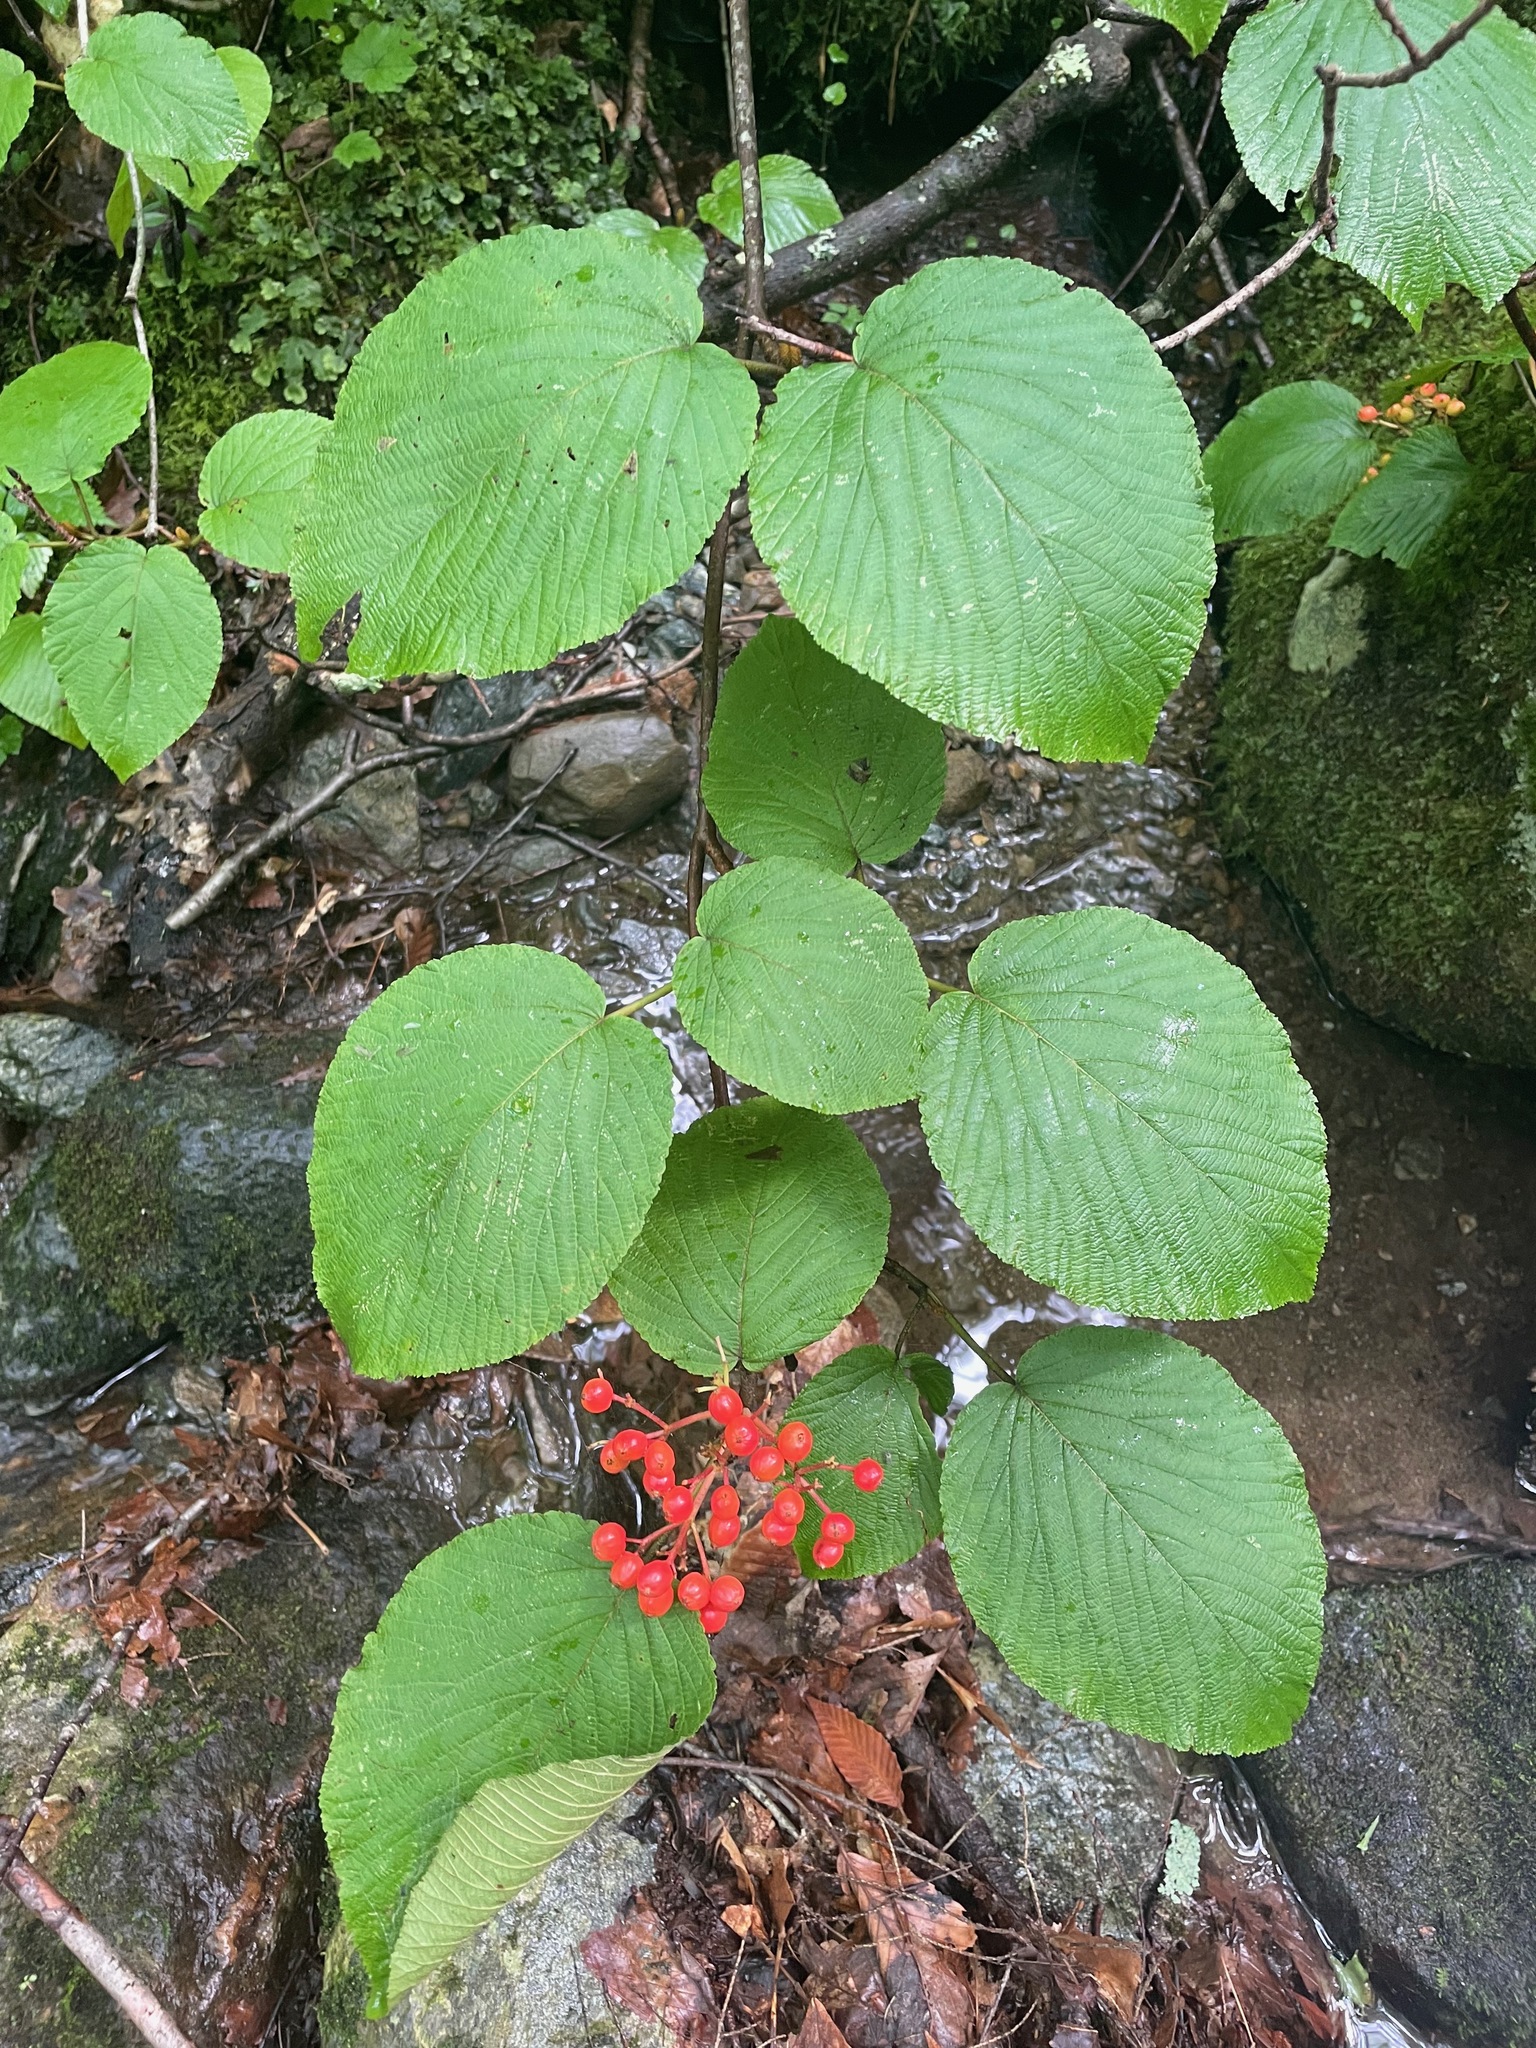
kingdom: Plantae
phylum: Tracheophyta
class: Magnoliopsida
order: Dipsacales
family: Viburnaceae
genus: Viburnum
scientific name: Viburnum lantanoides
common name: Hobblebush
